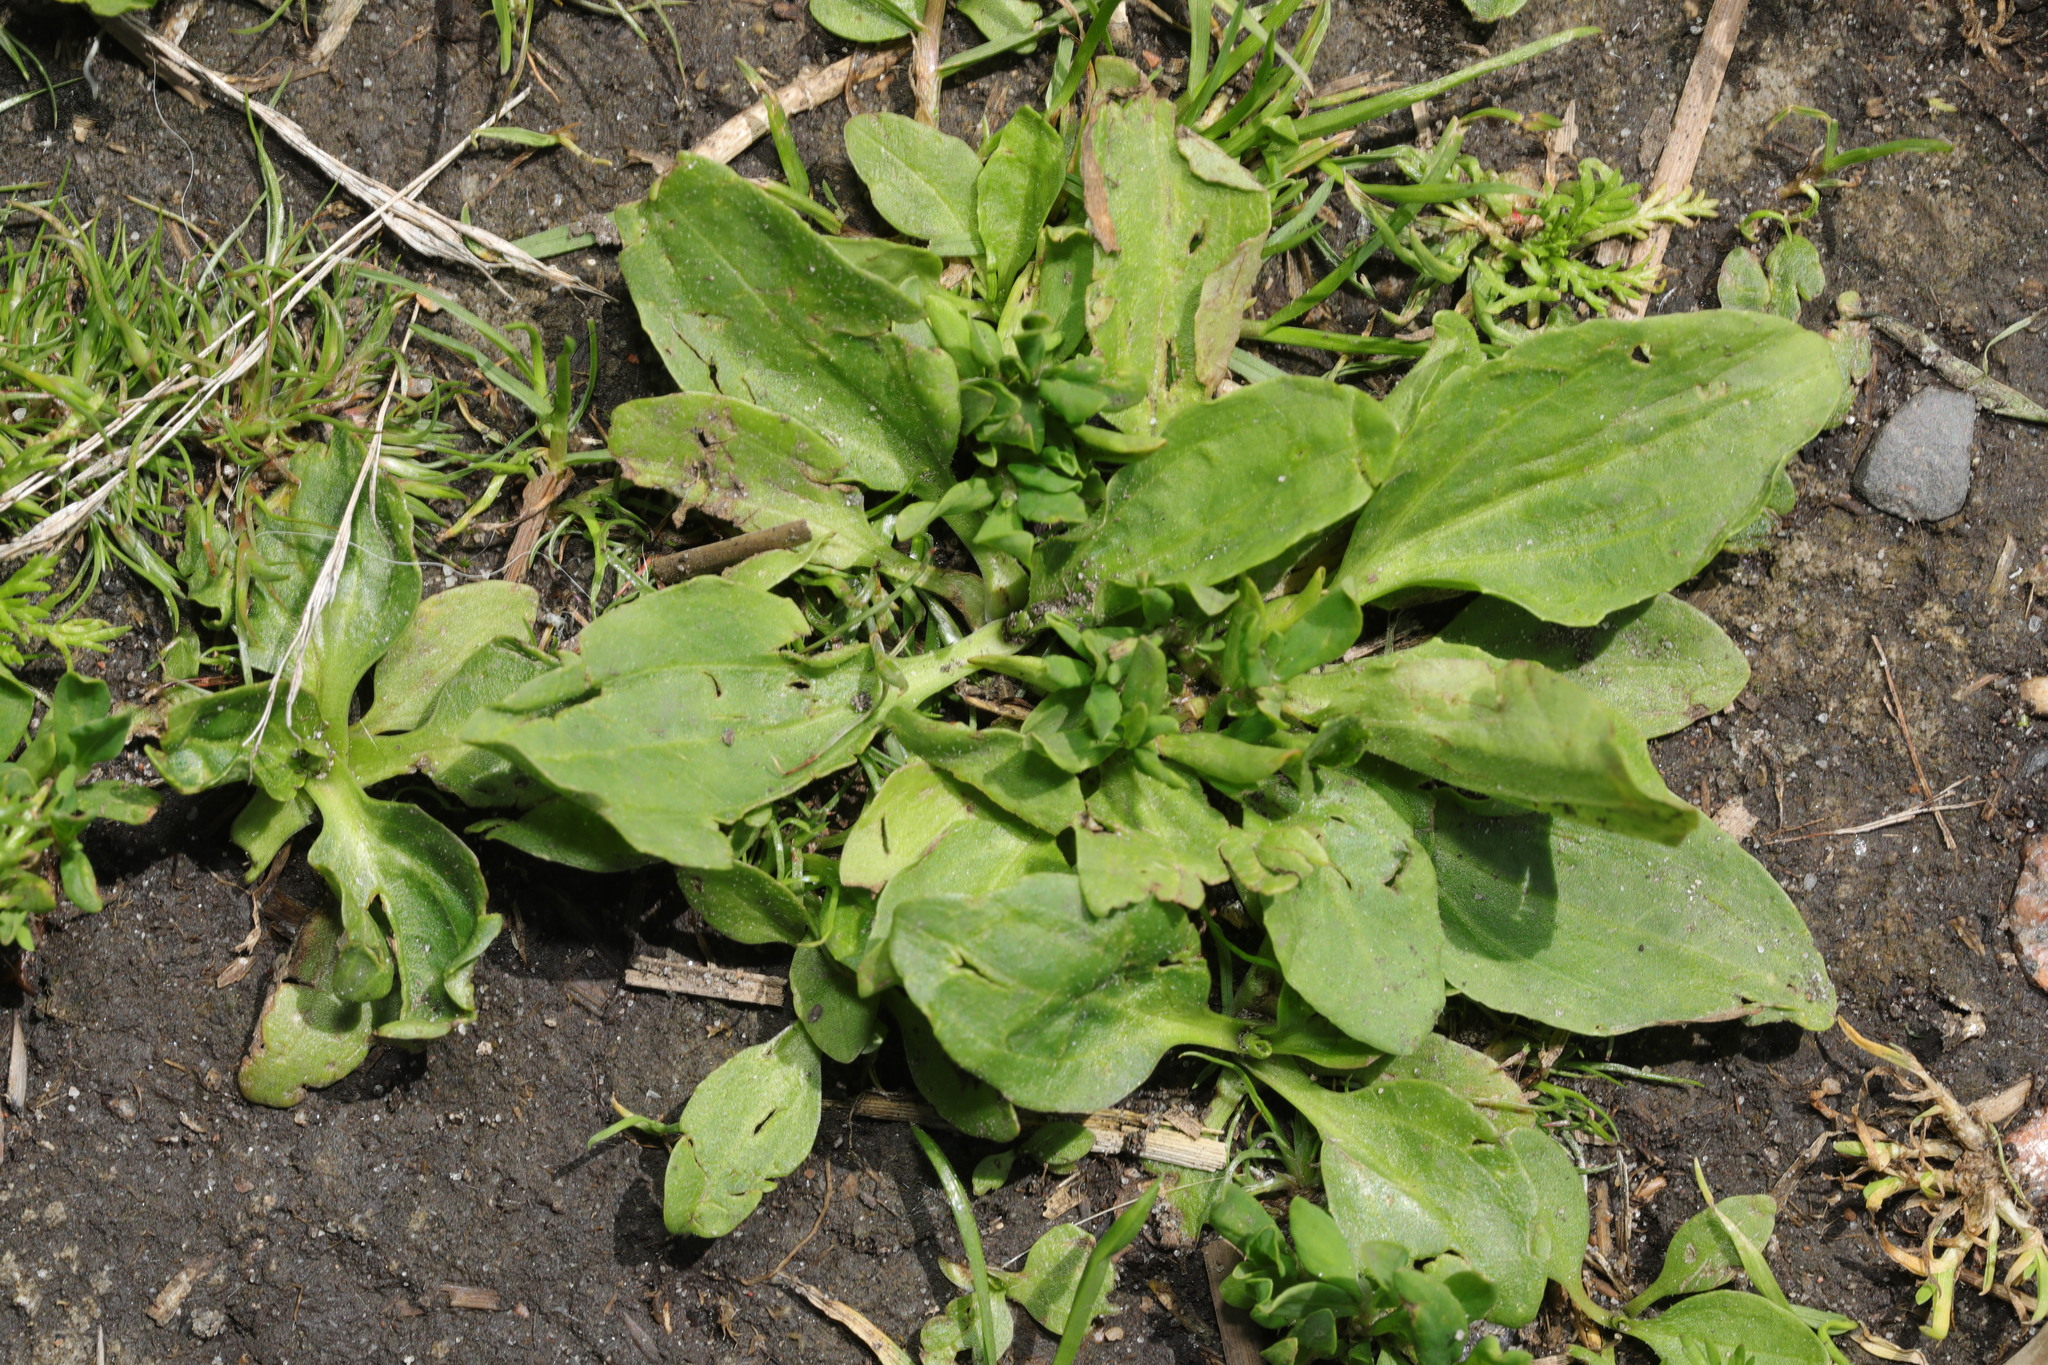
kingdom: Plantae
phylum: Tracheophyta
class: Magnoliopsida
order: Lamiales
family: Plantaginaceae
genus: Plantago
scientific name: Plantago major
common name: Common plantain
